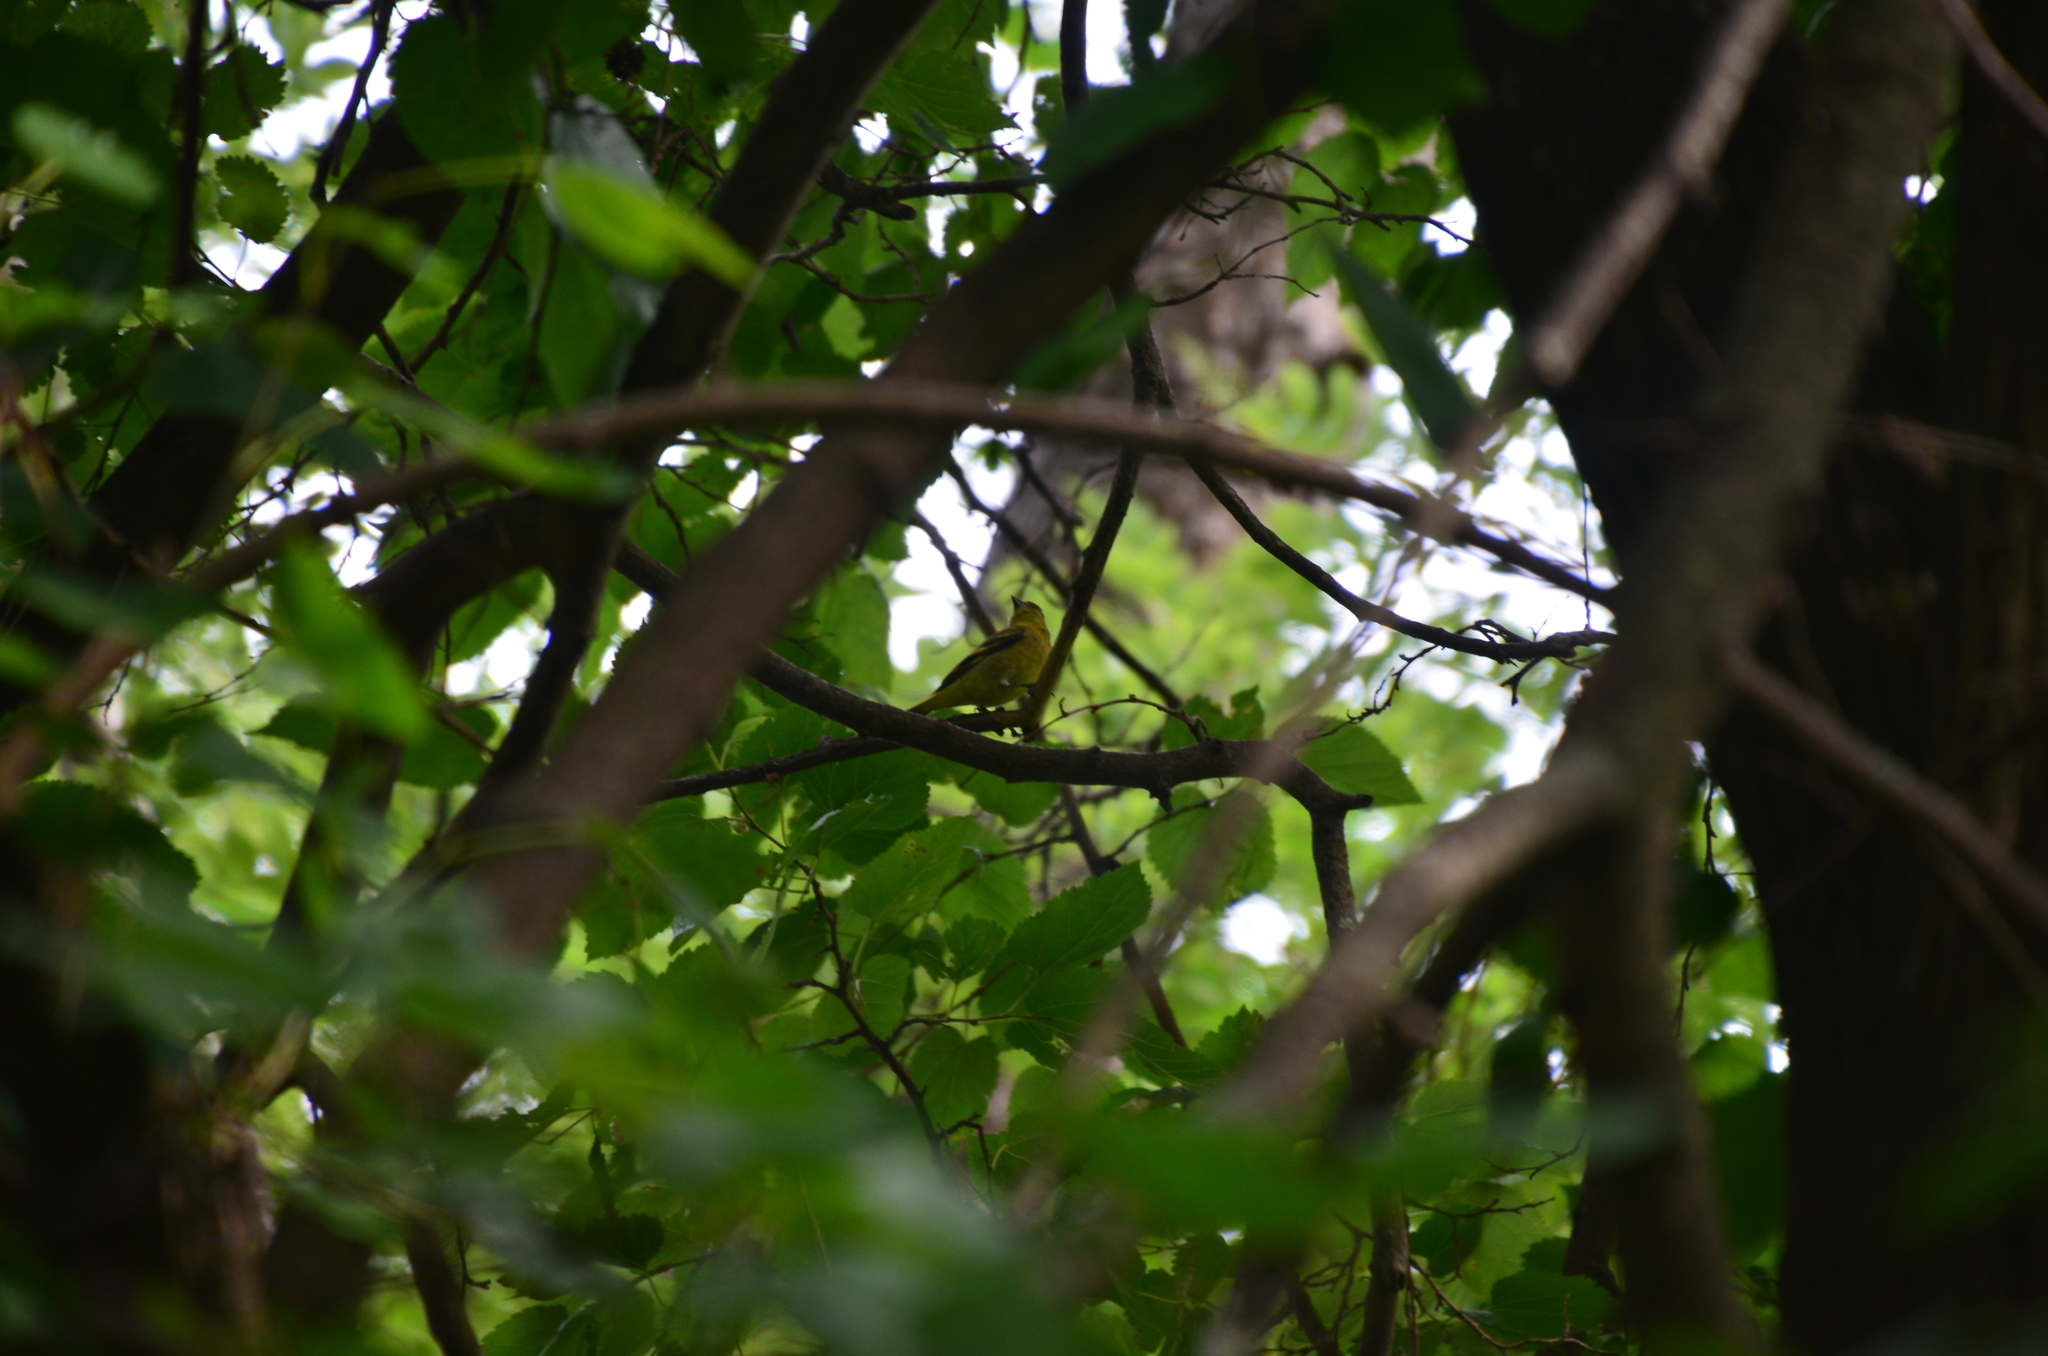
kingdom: Animalia
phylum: Chordata
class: Aves
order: Passeriformes
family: Fringillidae
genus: Spinus
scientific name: Spinus magellanicus
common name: Hooded siskin
